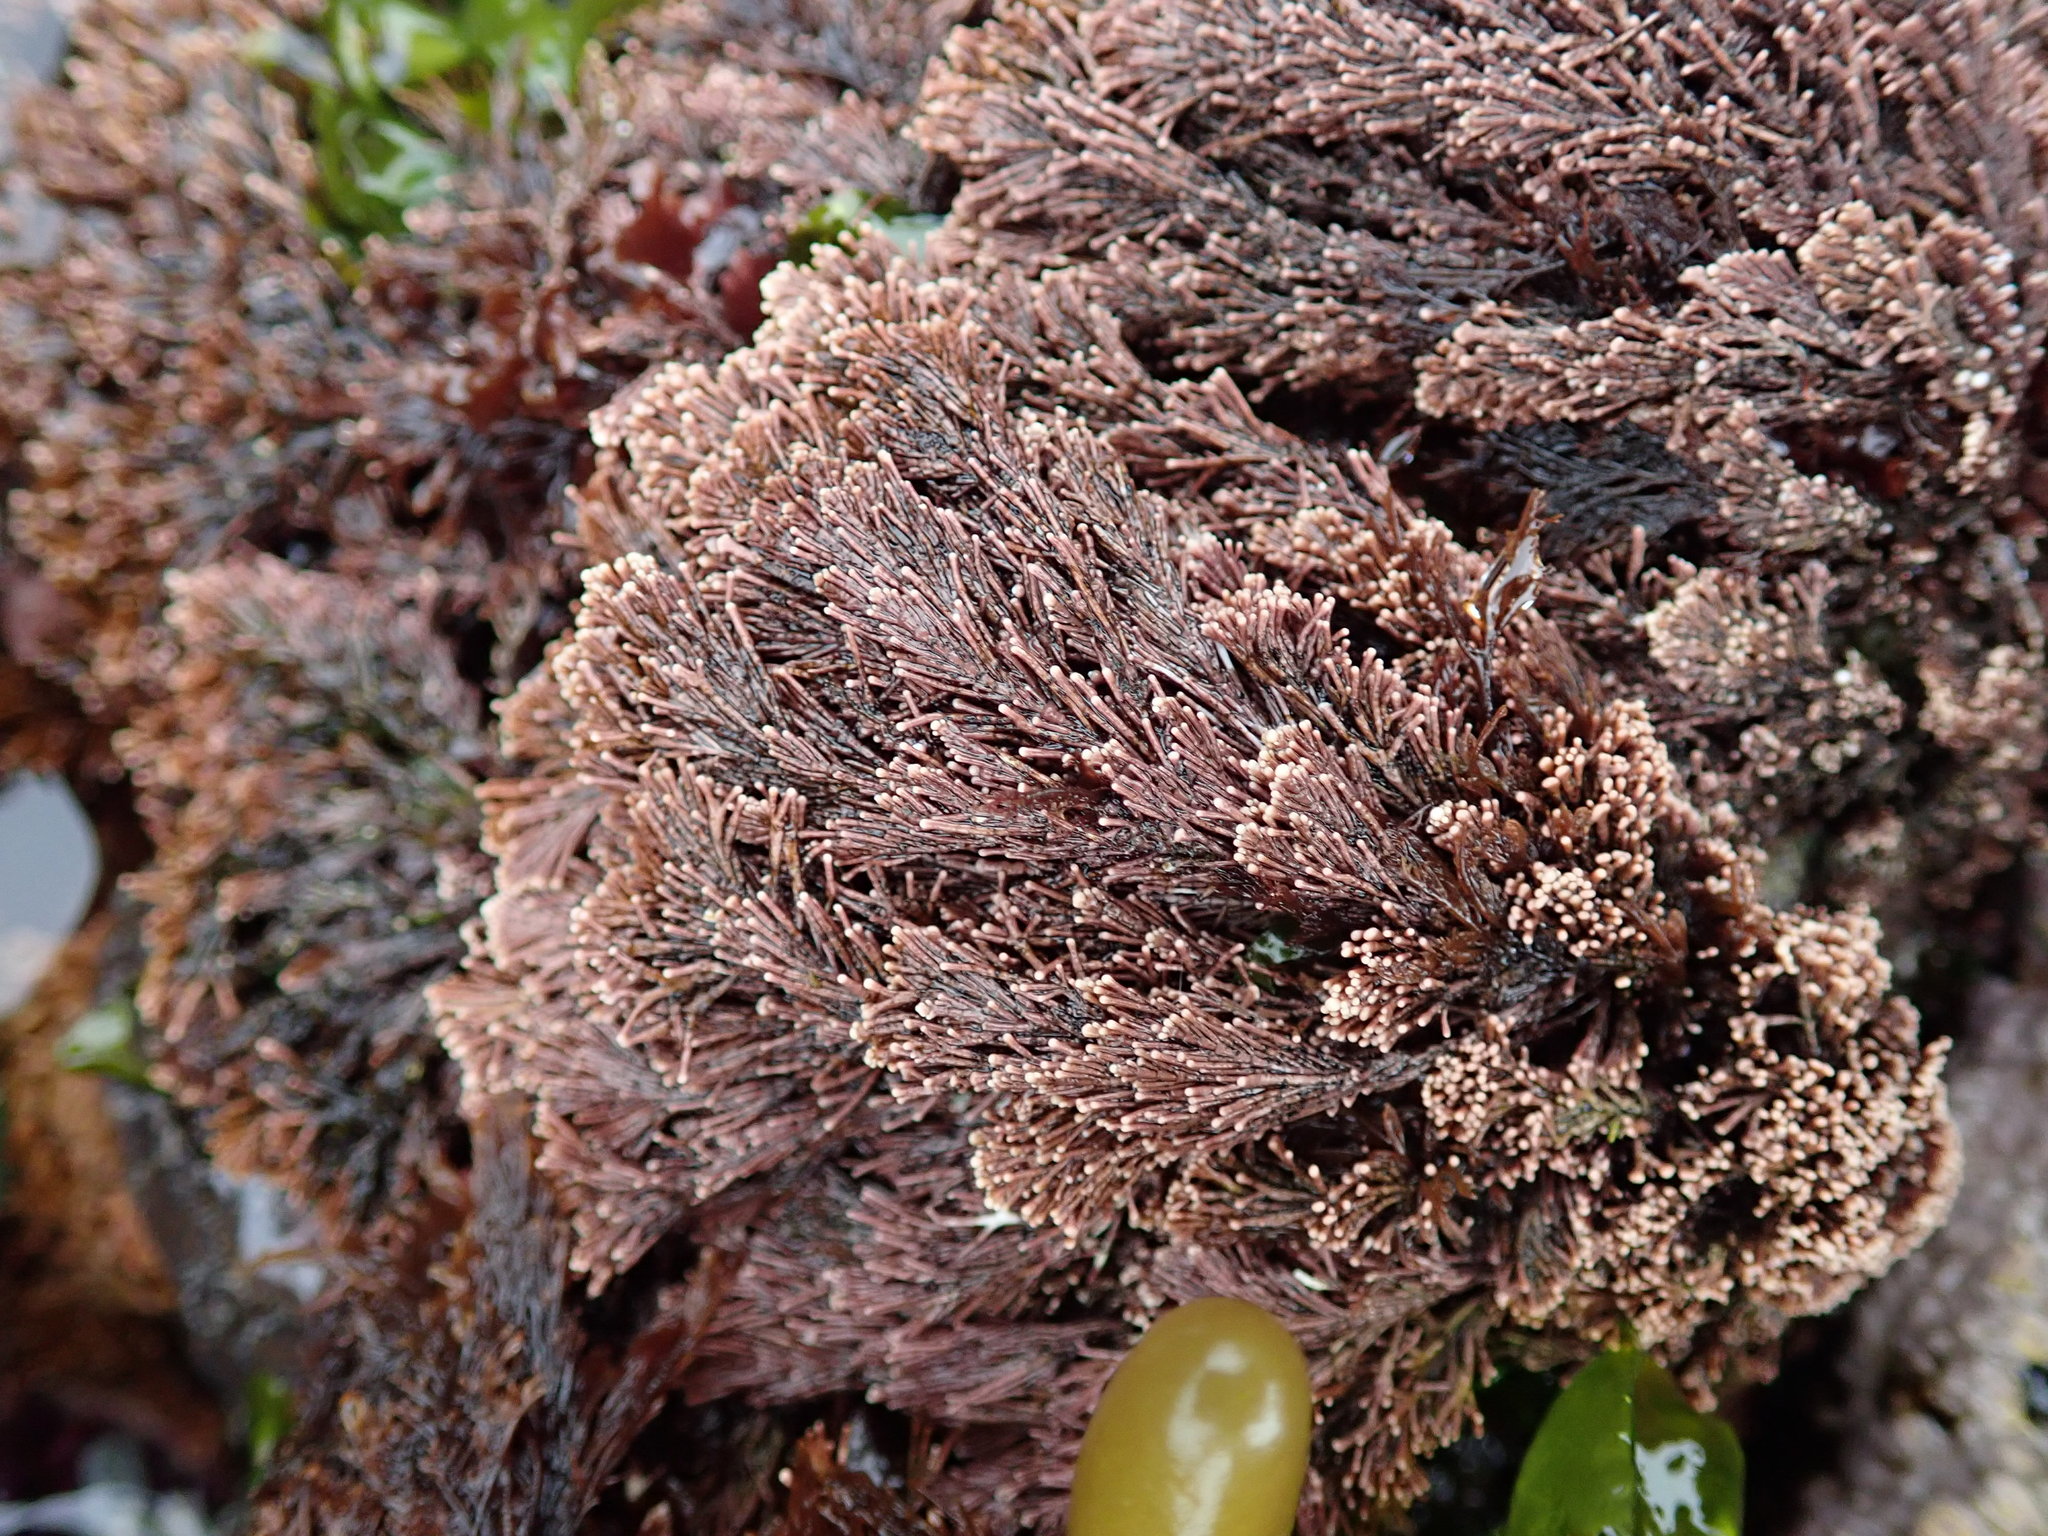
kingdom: Plantae
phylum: Rhodophyta
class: Florideophyceae
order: Corallinales
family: Corallinaceae
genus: Corallina
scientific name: Corallina vancouveriensis
